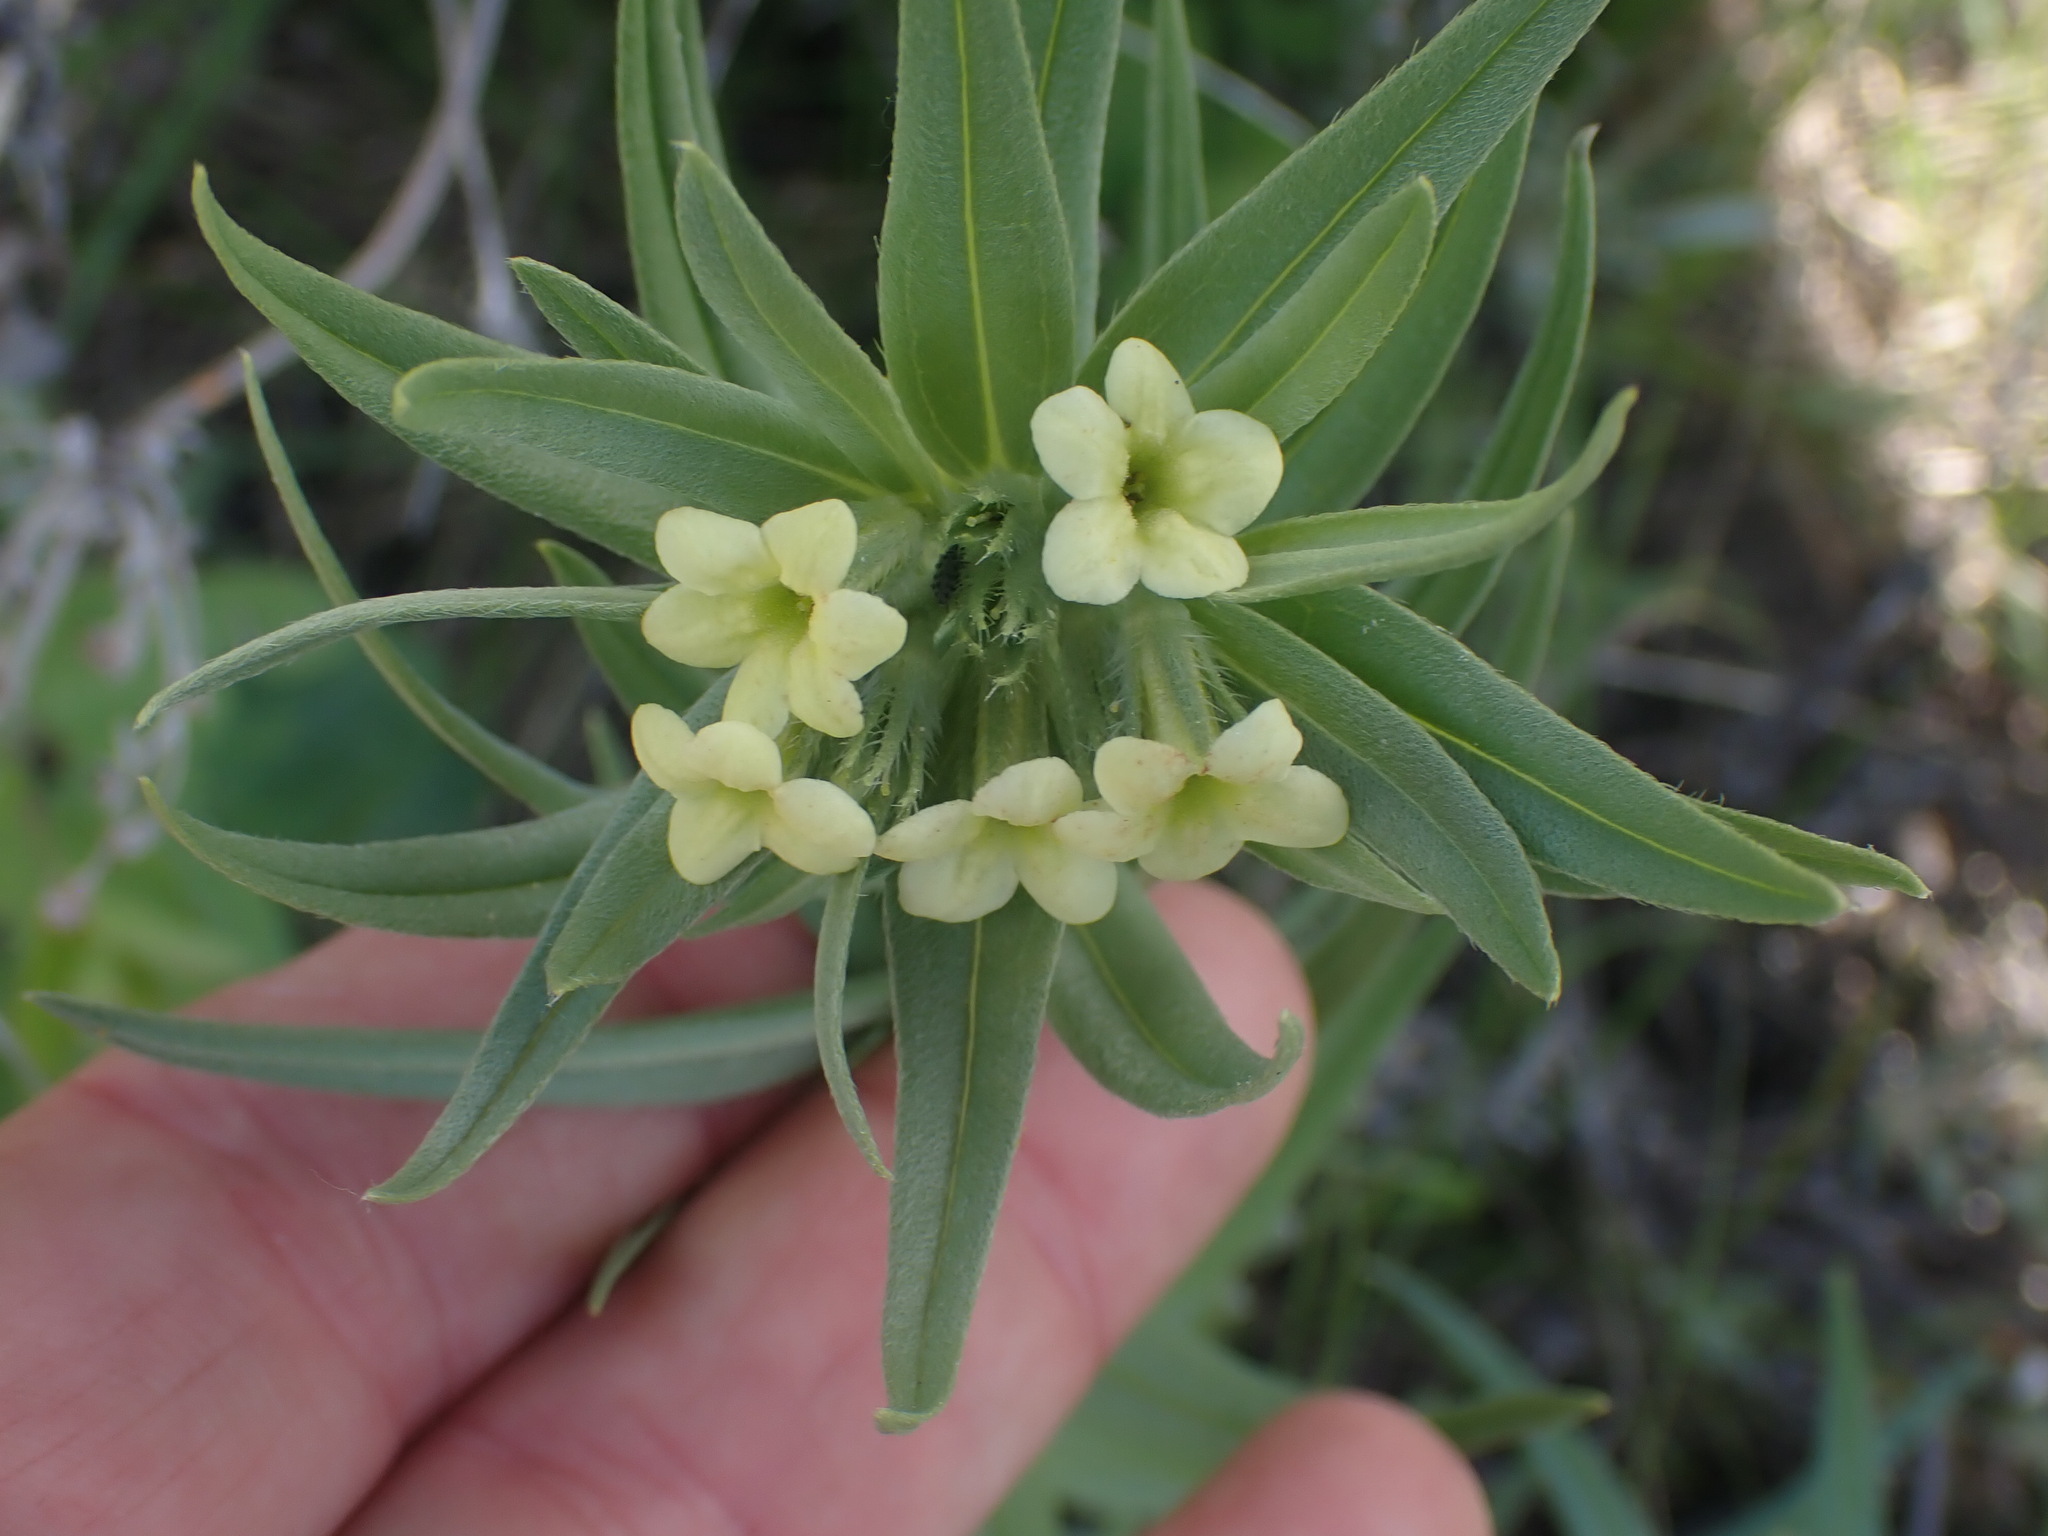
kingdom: Plantae
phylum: Tracheophyta
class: Magnoliopsida
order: Boraginales
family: Boraginaceae
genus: Lithospermum
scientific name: Lithospermum ruderale
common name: Western gromwell
